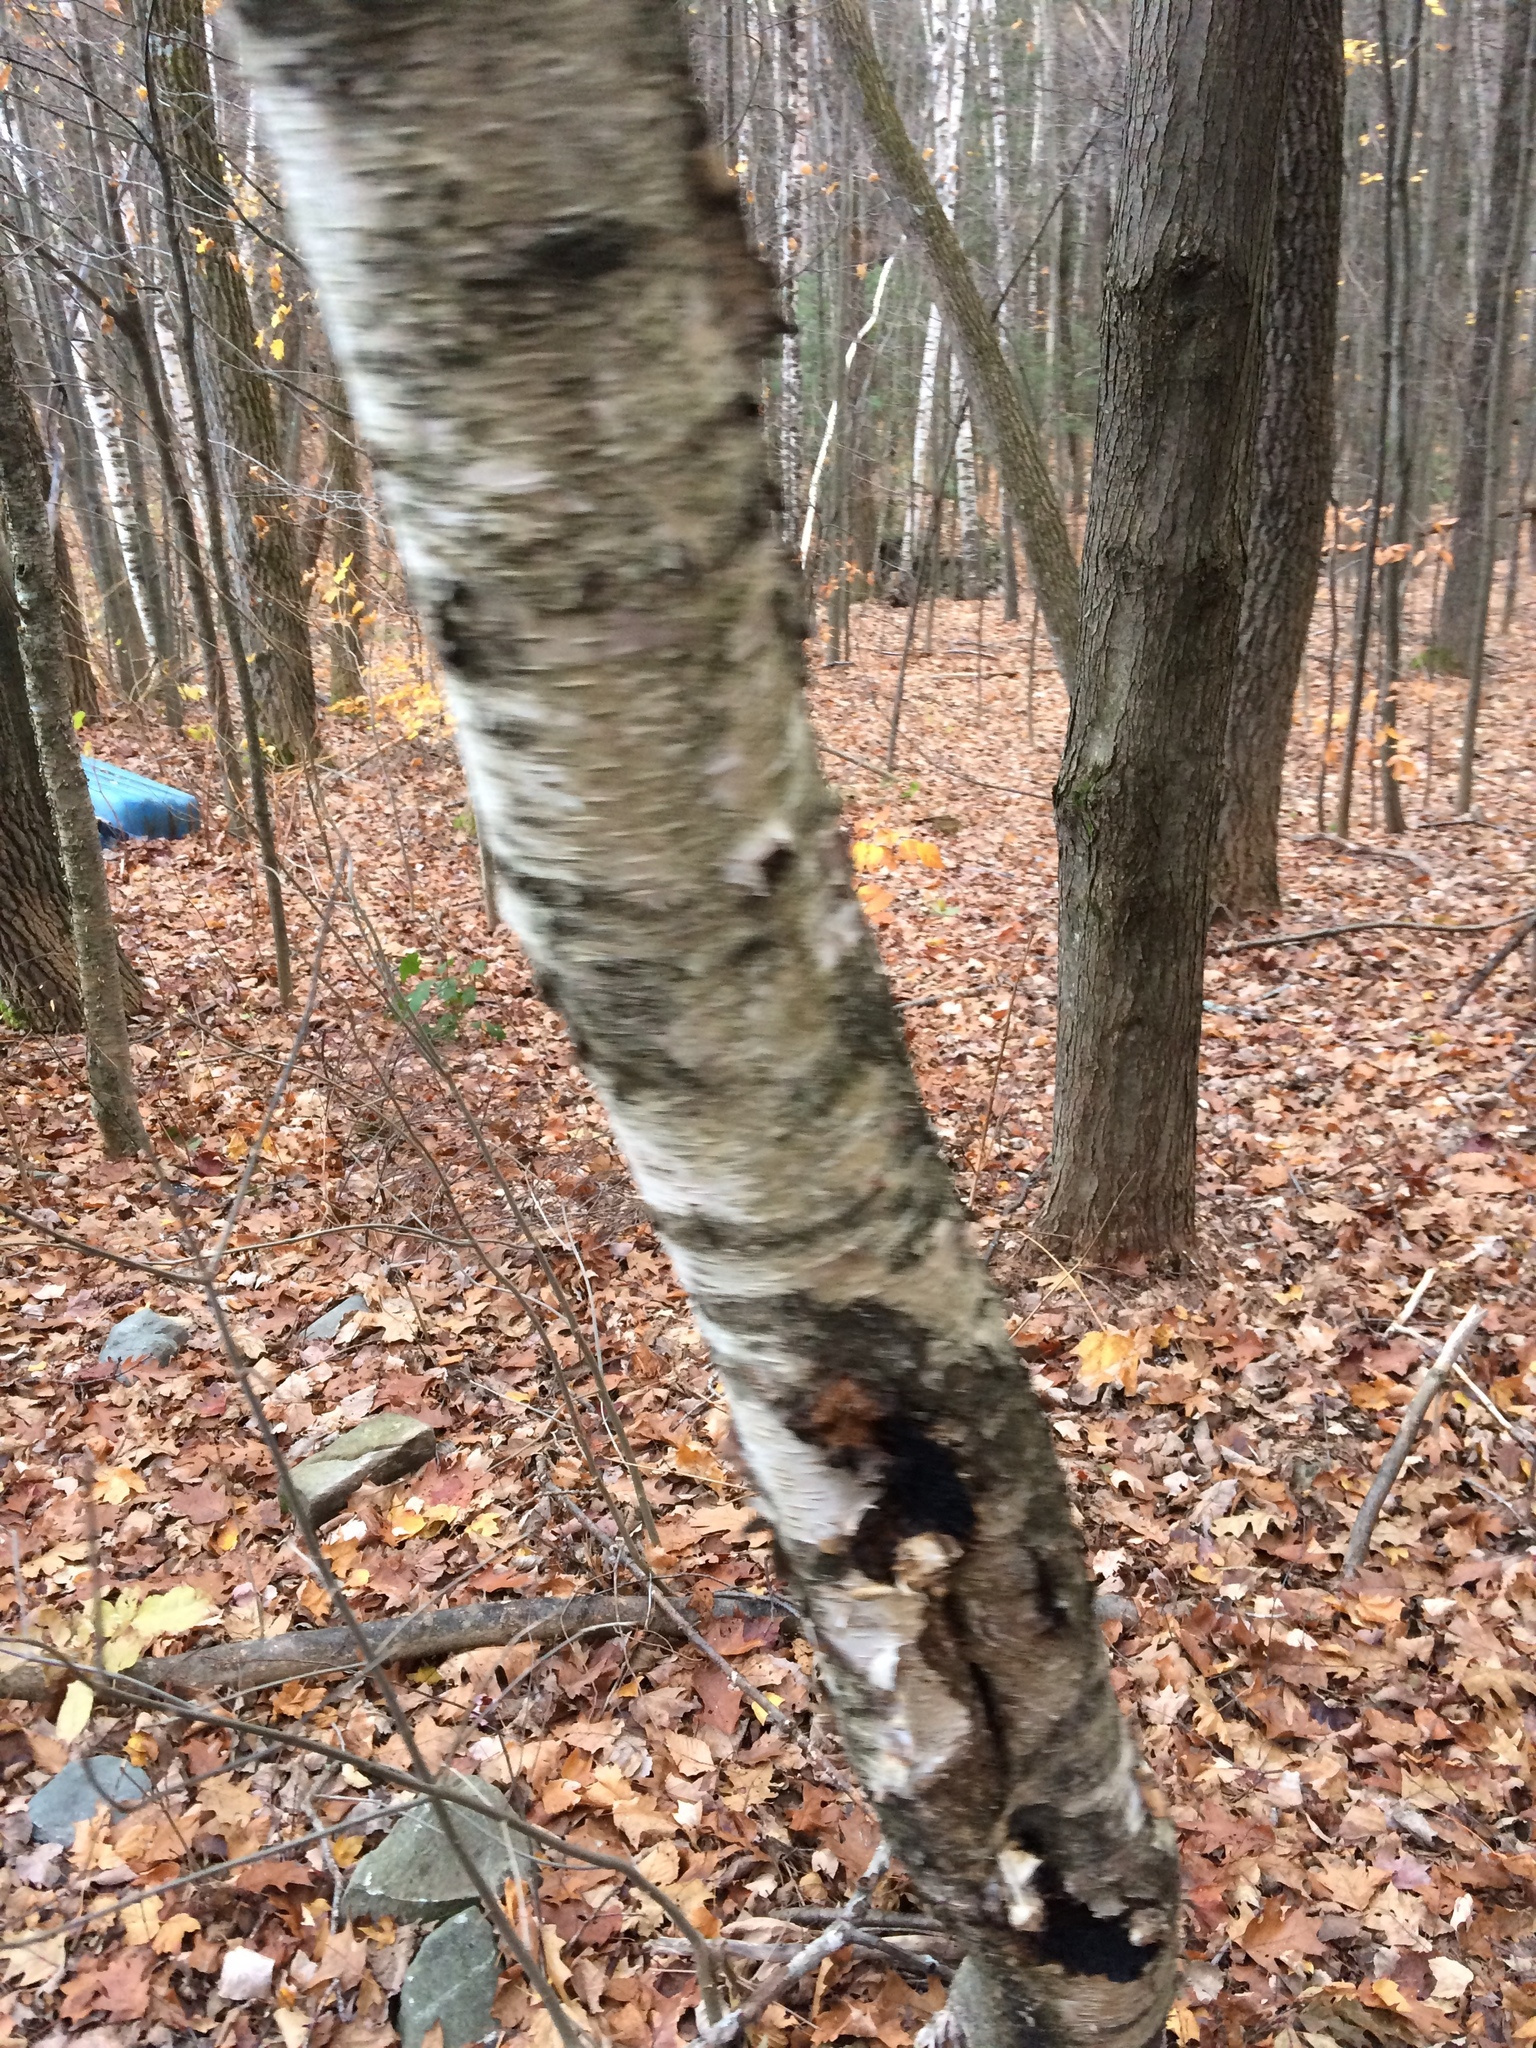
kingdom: Plantae
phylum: Tracheophyta
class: Magnoliopsida
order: Fagales
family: Betulaceae
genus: Betula
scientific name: Betula papyrifera
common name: Paper birch
